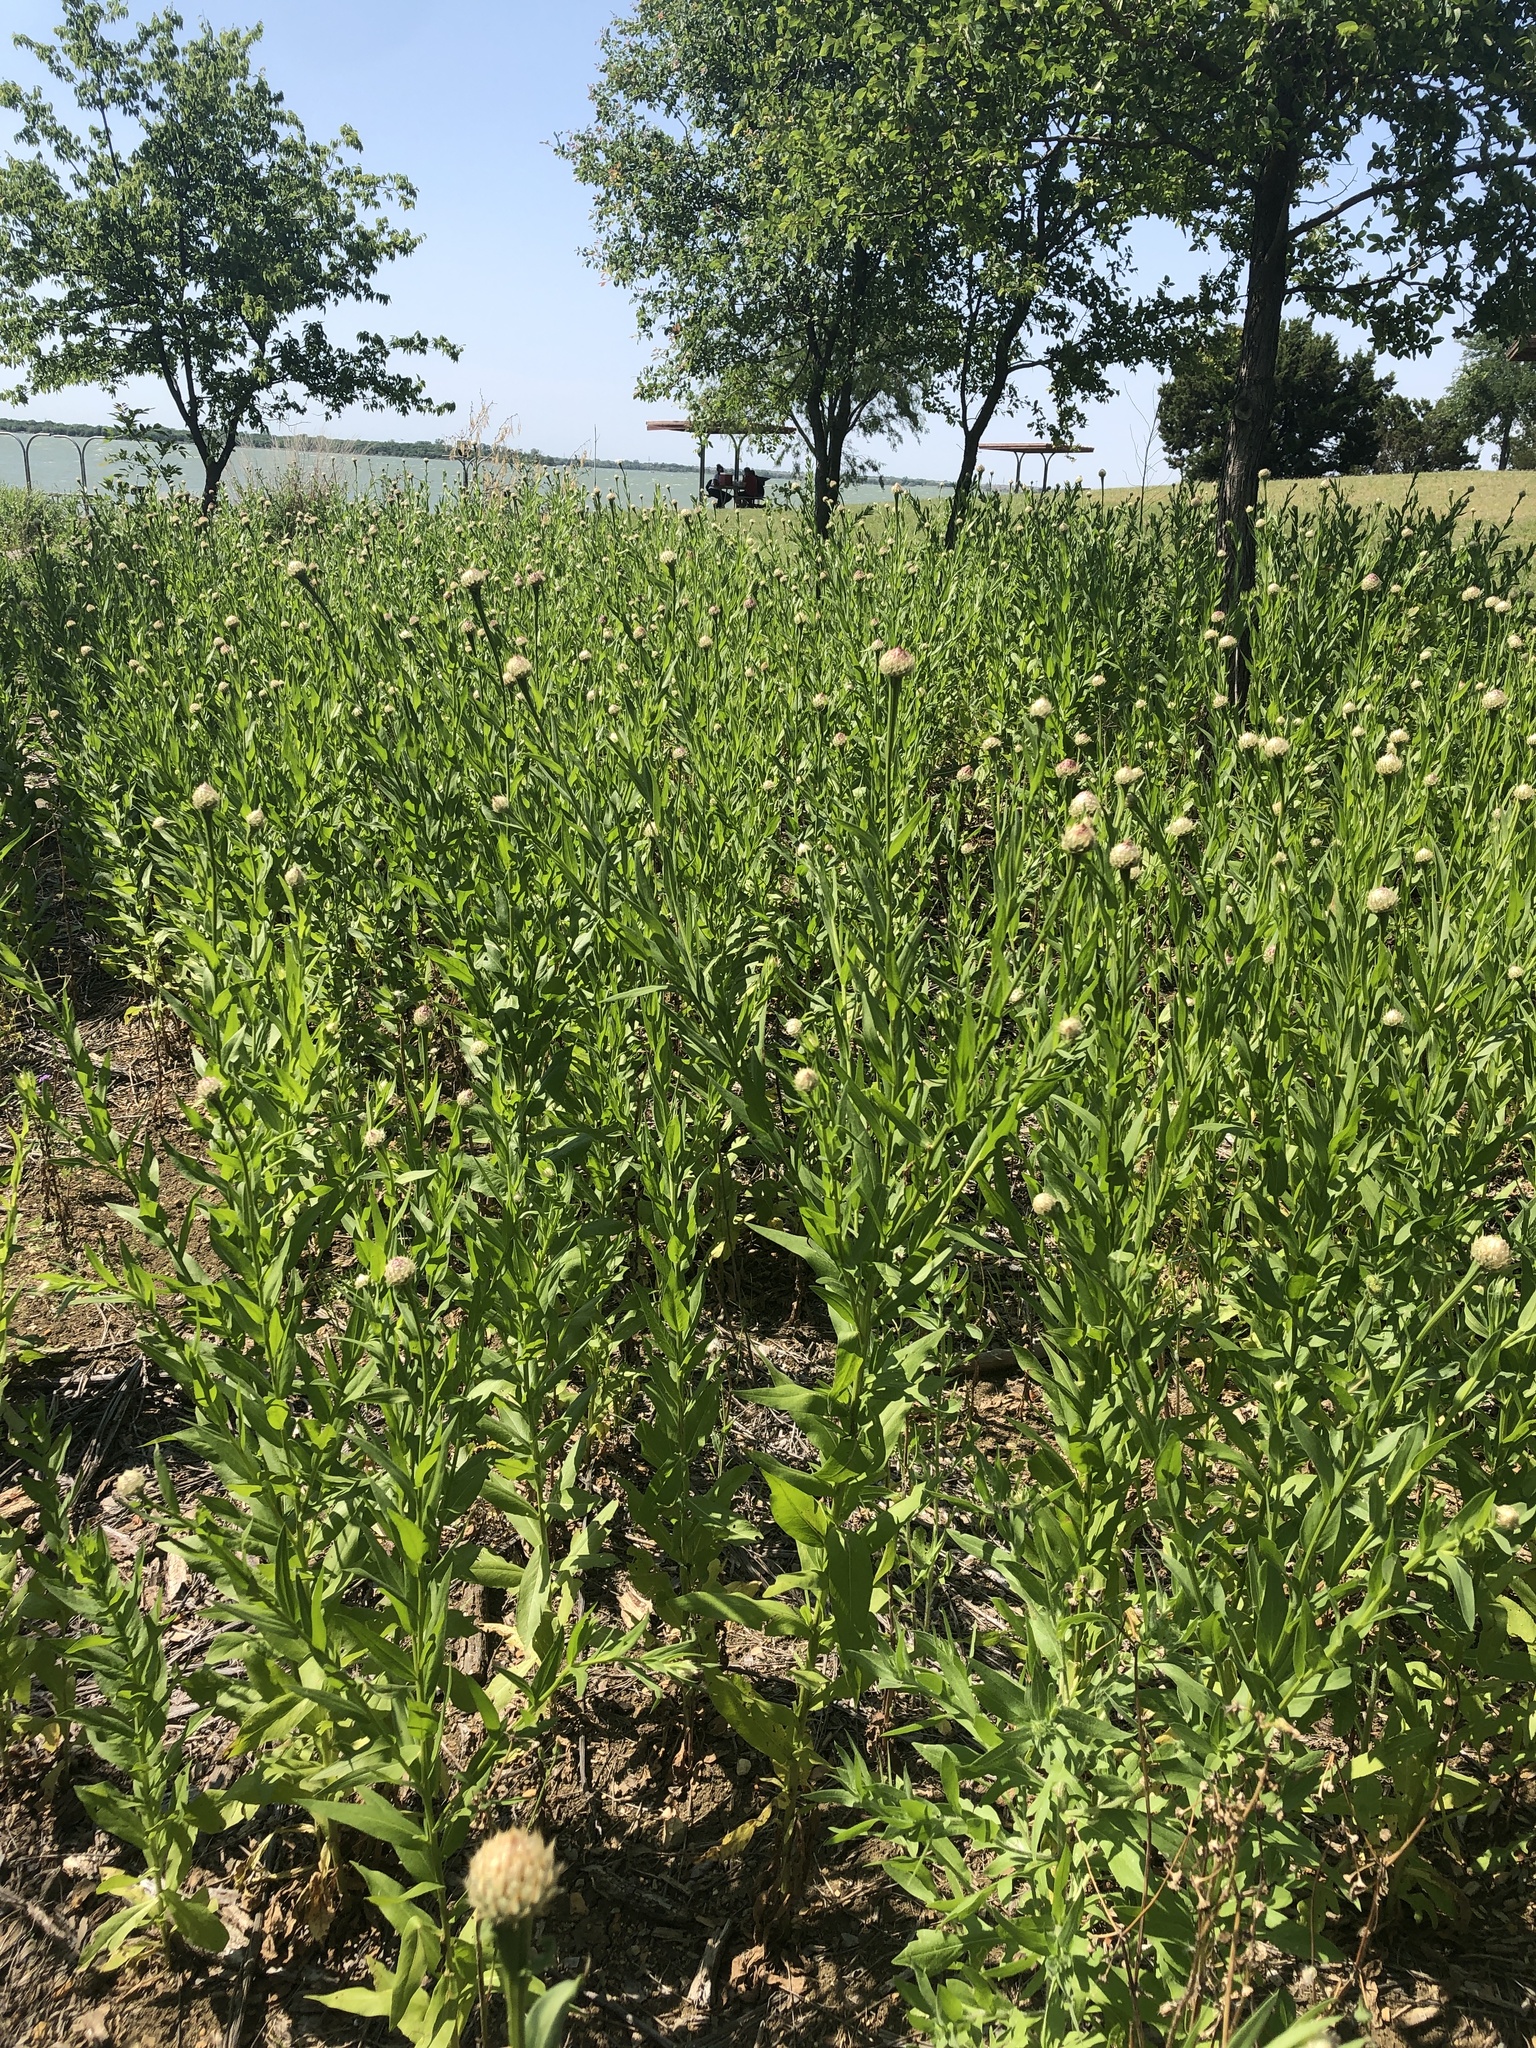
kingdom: Plantae
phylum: Tracheophyta
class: Magnoliopsida
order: Asterales
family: Asteraceae
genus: Plectocephalus
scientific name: Plectocephalus americanus
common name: American basket-flower
